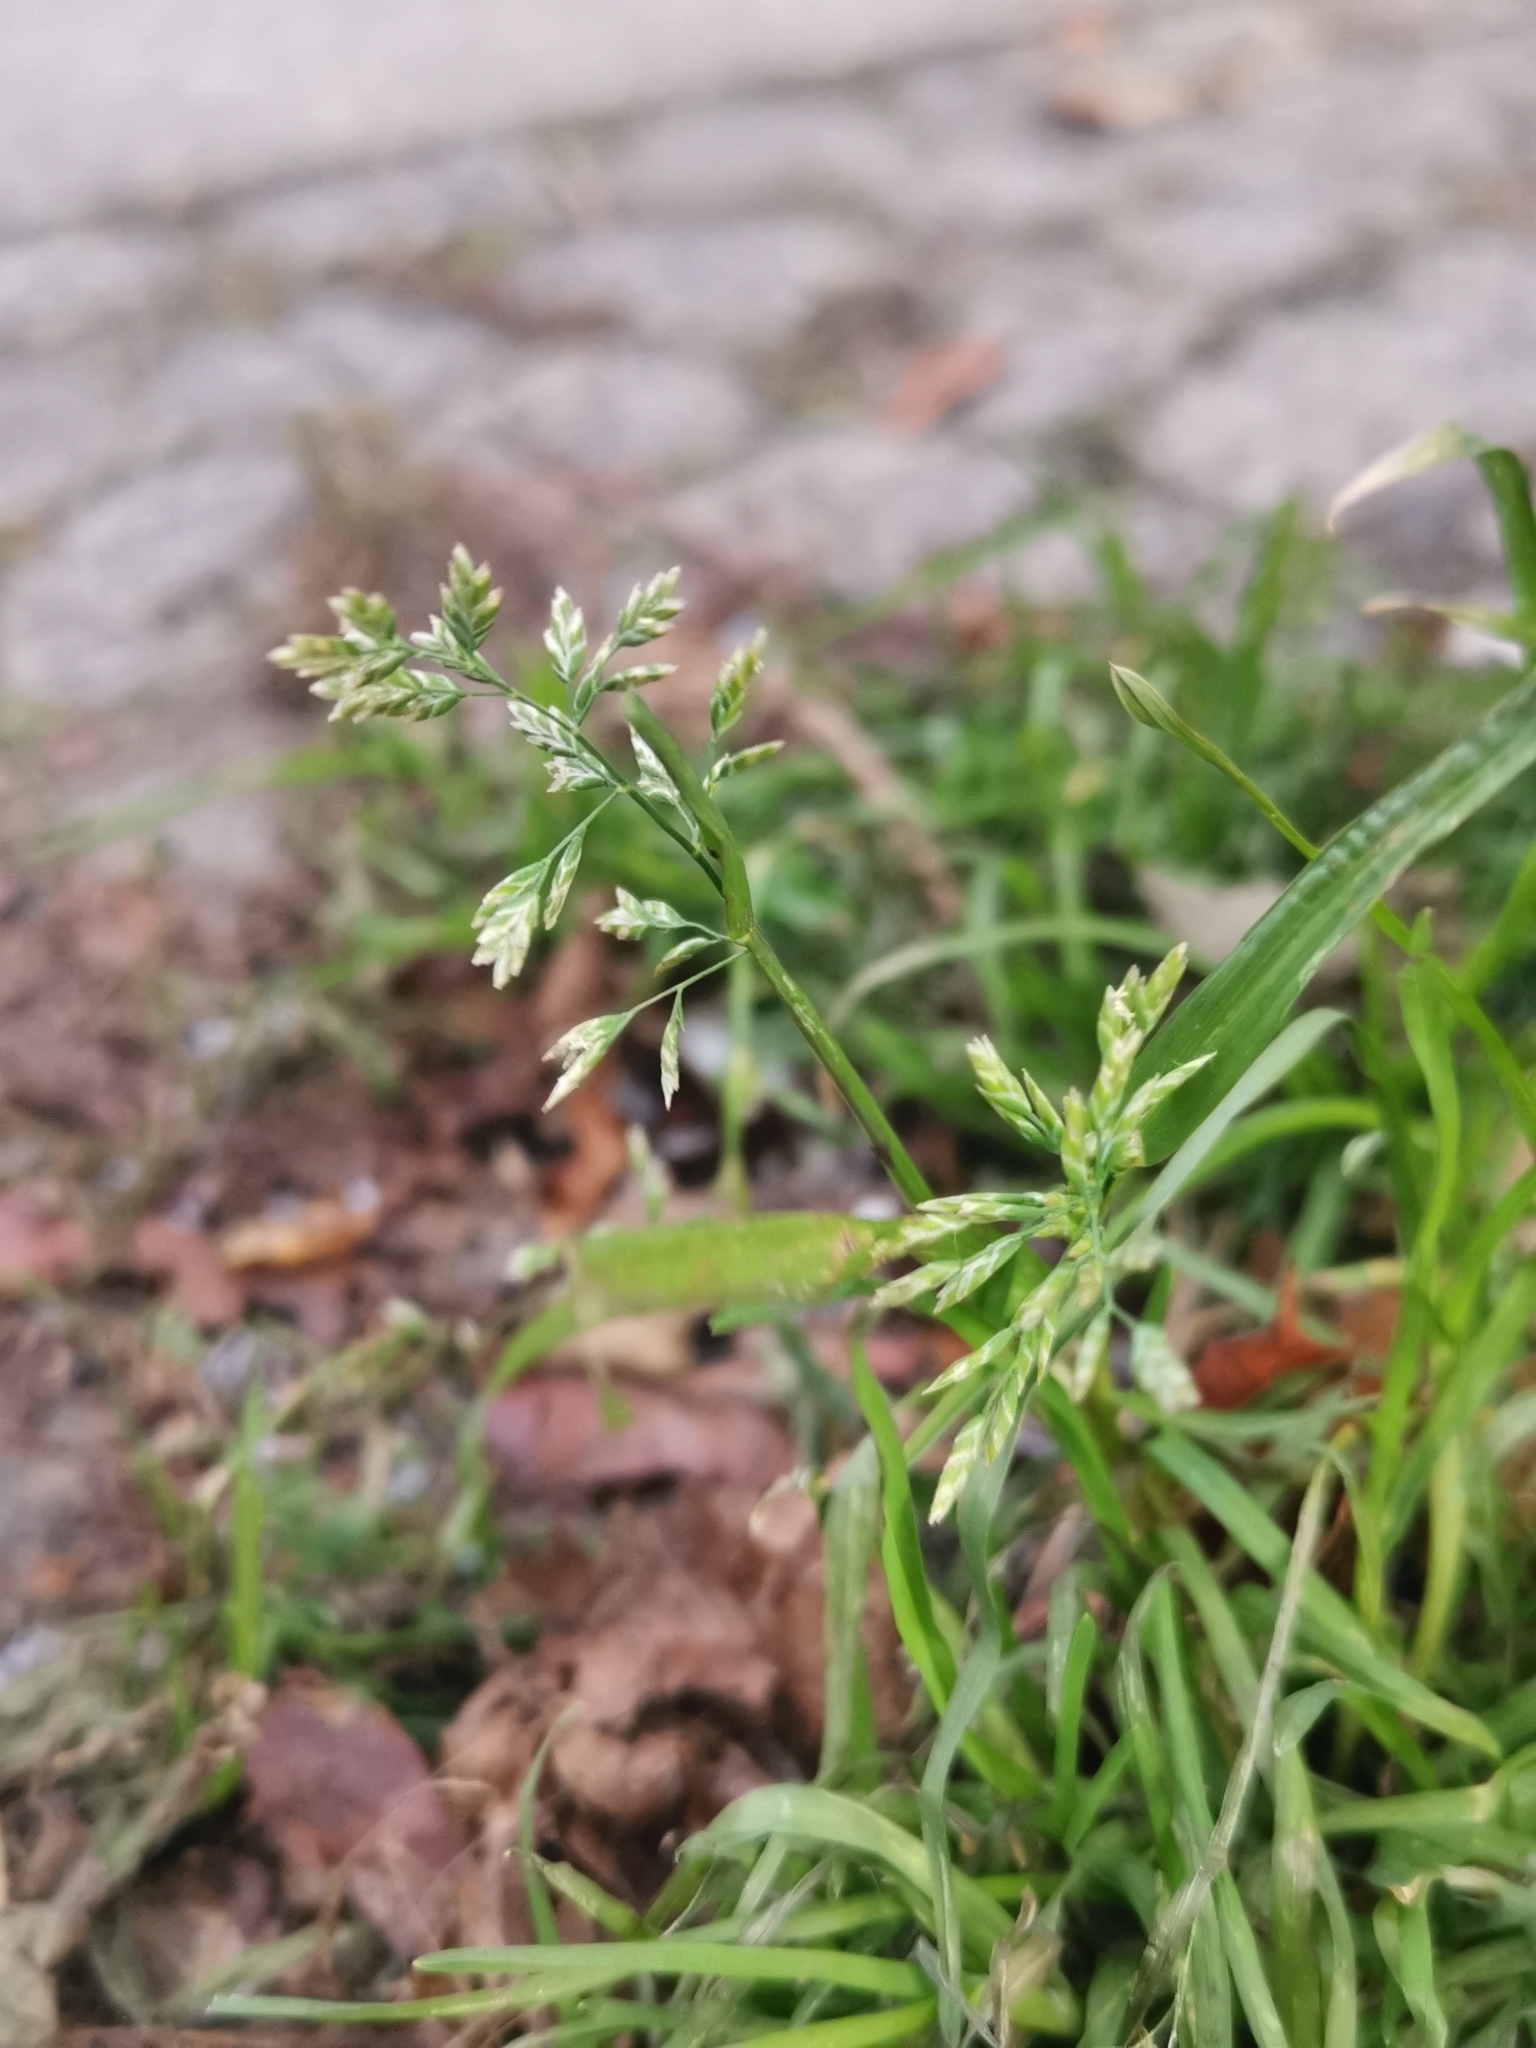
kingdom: Plantae
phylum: Tracheophyta
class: Liliopsida
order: Poales
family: Poaceae
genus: Poa
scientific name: Poa annua
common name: Annual bluegrass
